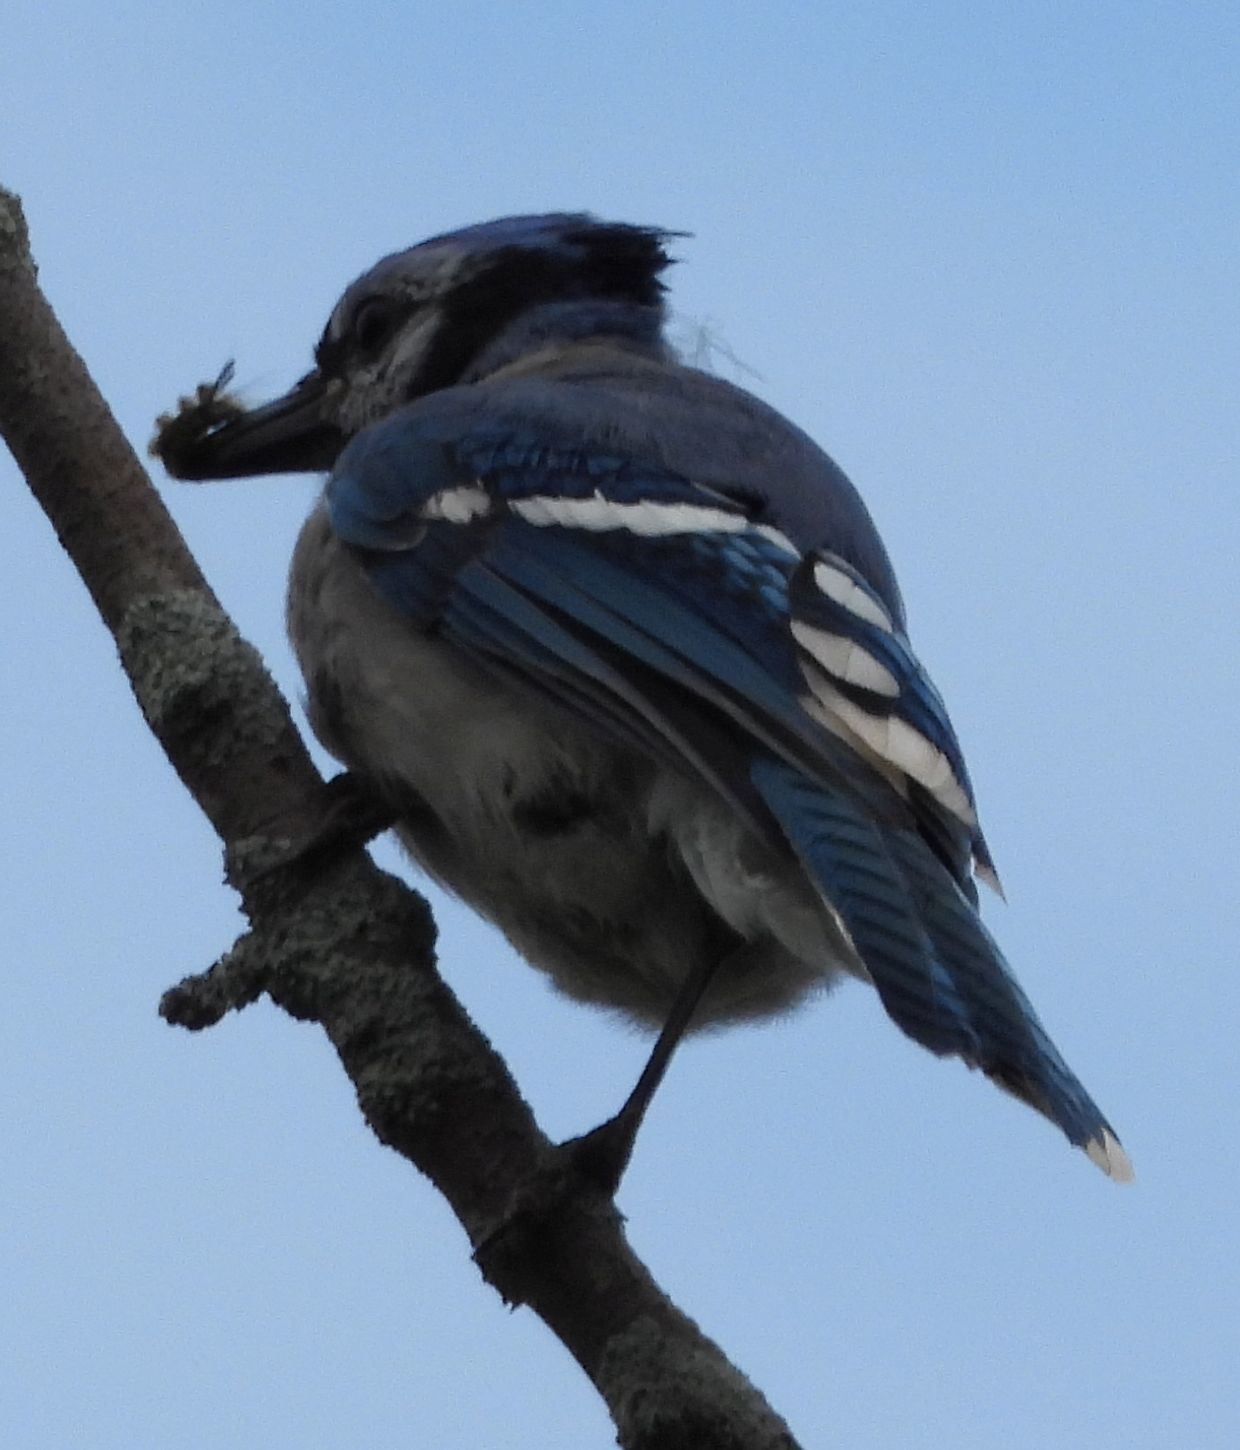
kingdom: Animalia
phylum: Chordata
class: Aves
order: Passeriformes
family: Corvidae
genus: Cyanocitta
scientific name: Cyanocitta cristata
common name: Blue jay
